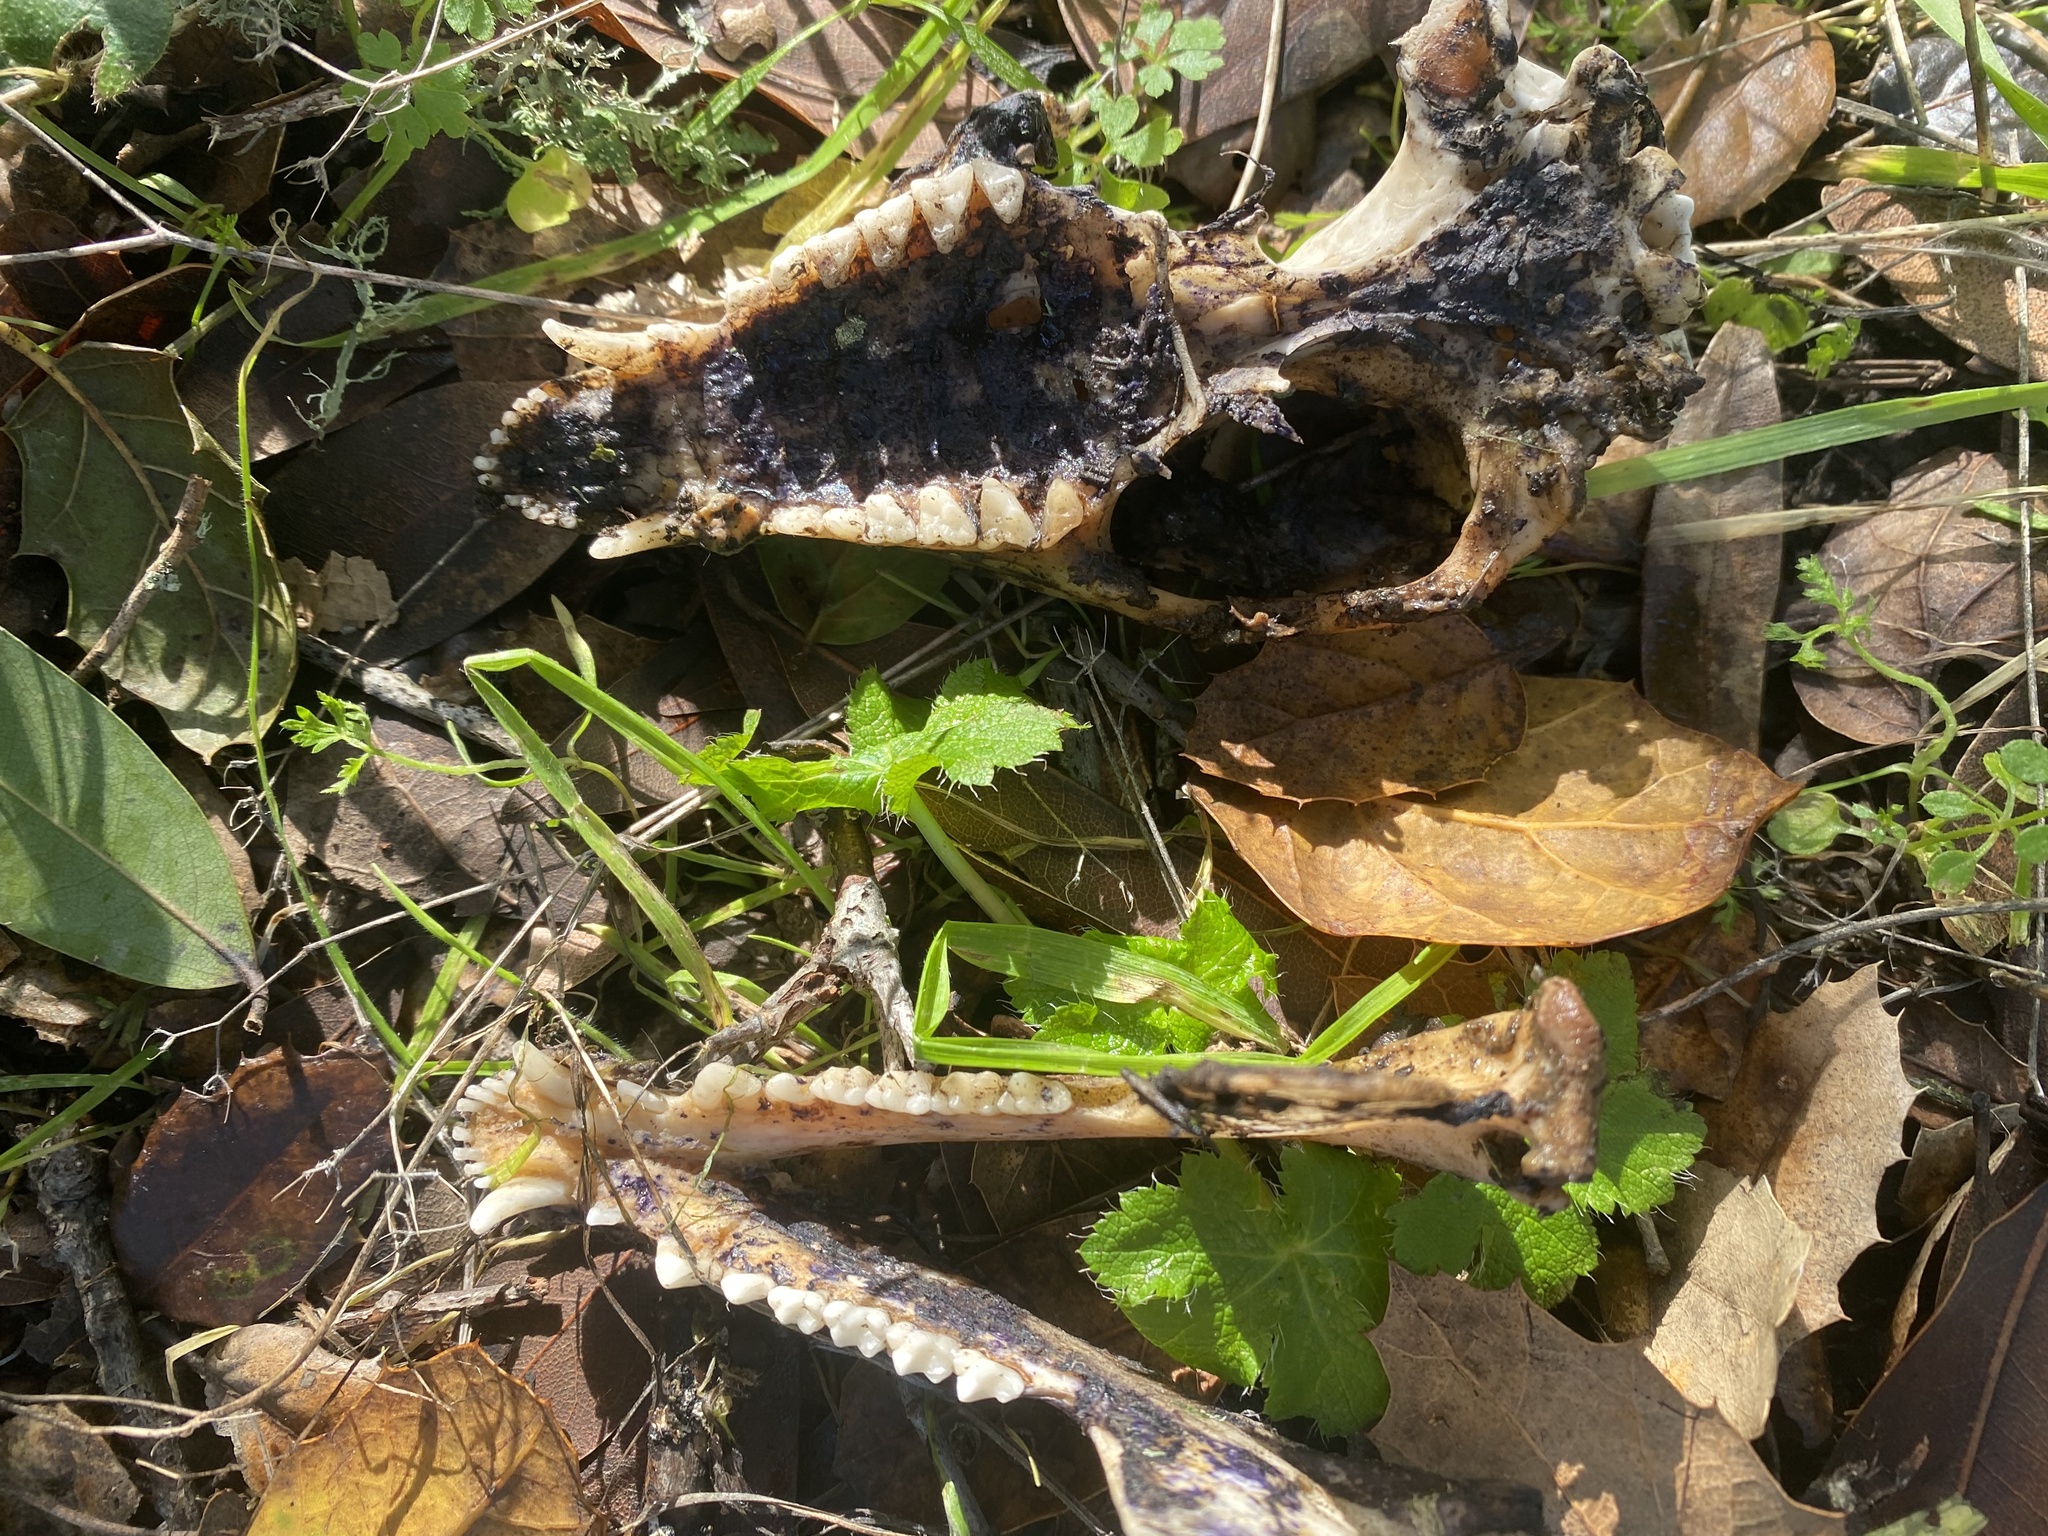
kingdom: Animalia
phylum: Chordata
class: Mammalia
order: Didelphimorphia
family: Didelphidae
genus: Didelphis
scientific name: Didelphis virginiana
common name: Virginia opossum
